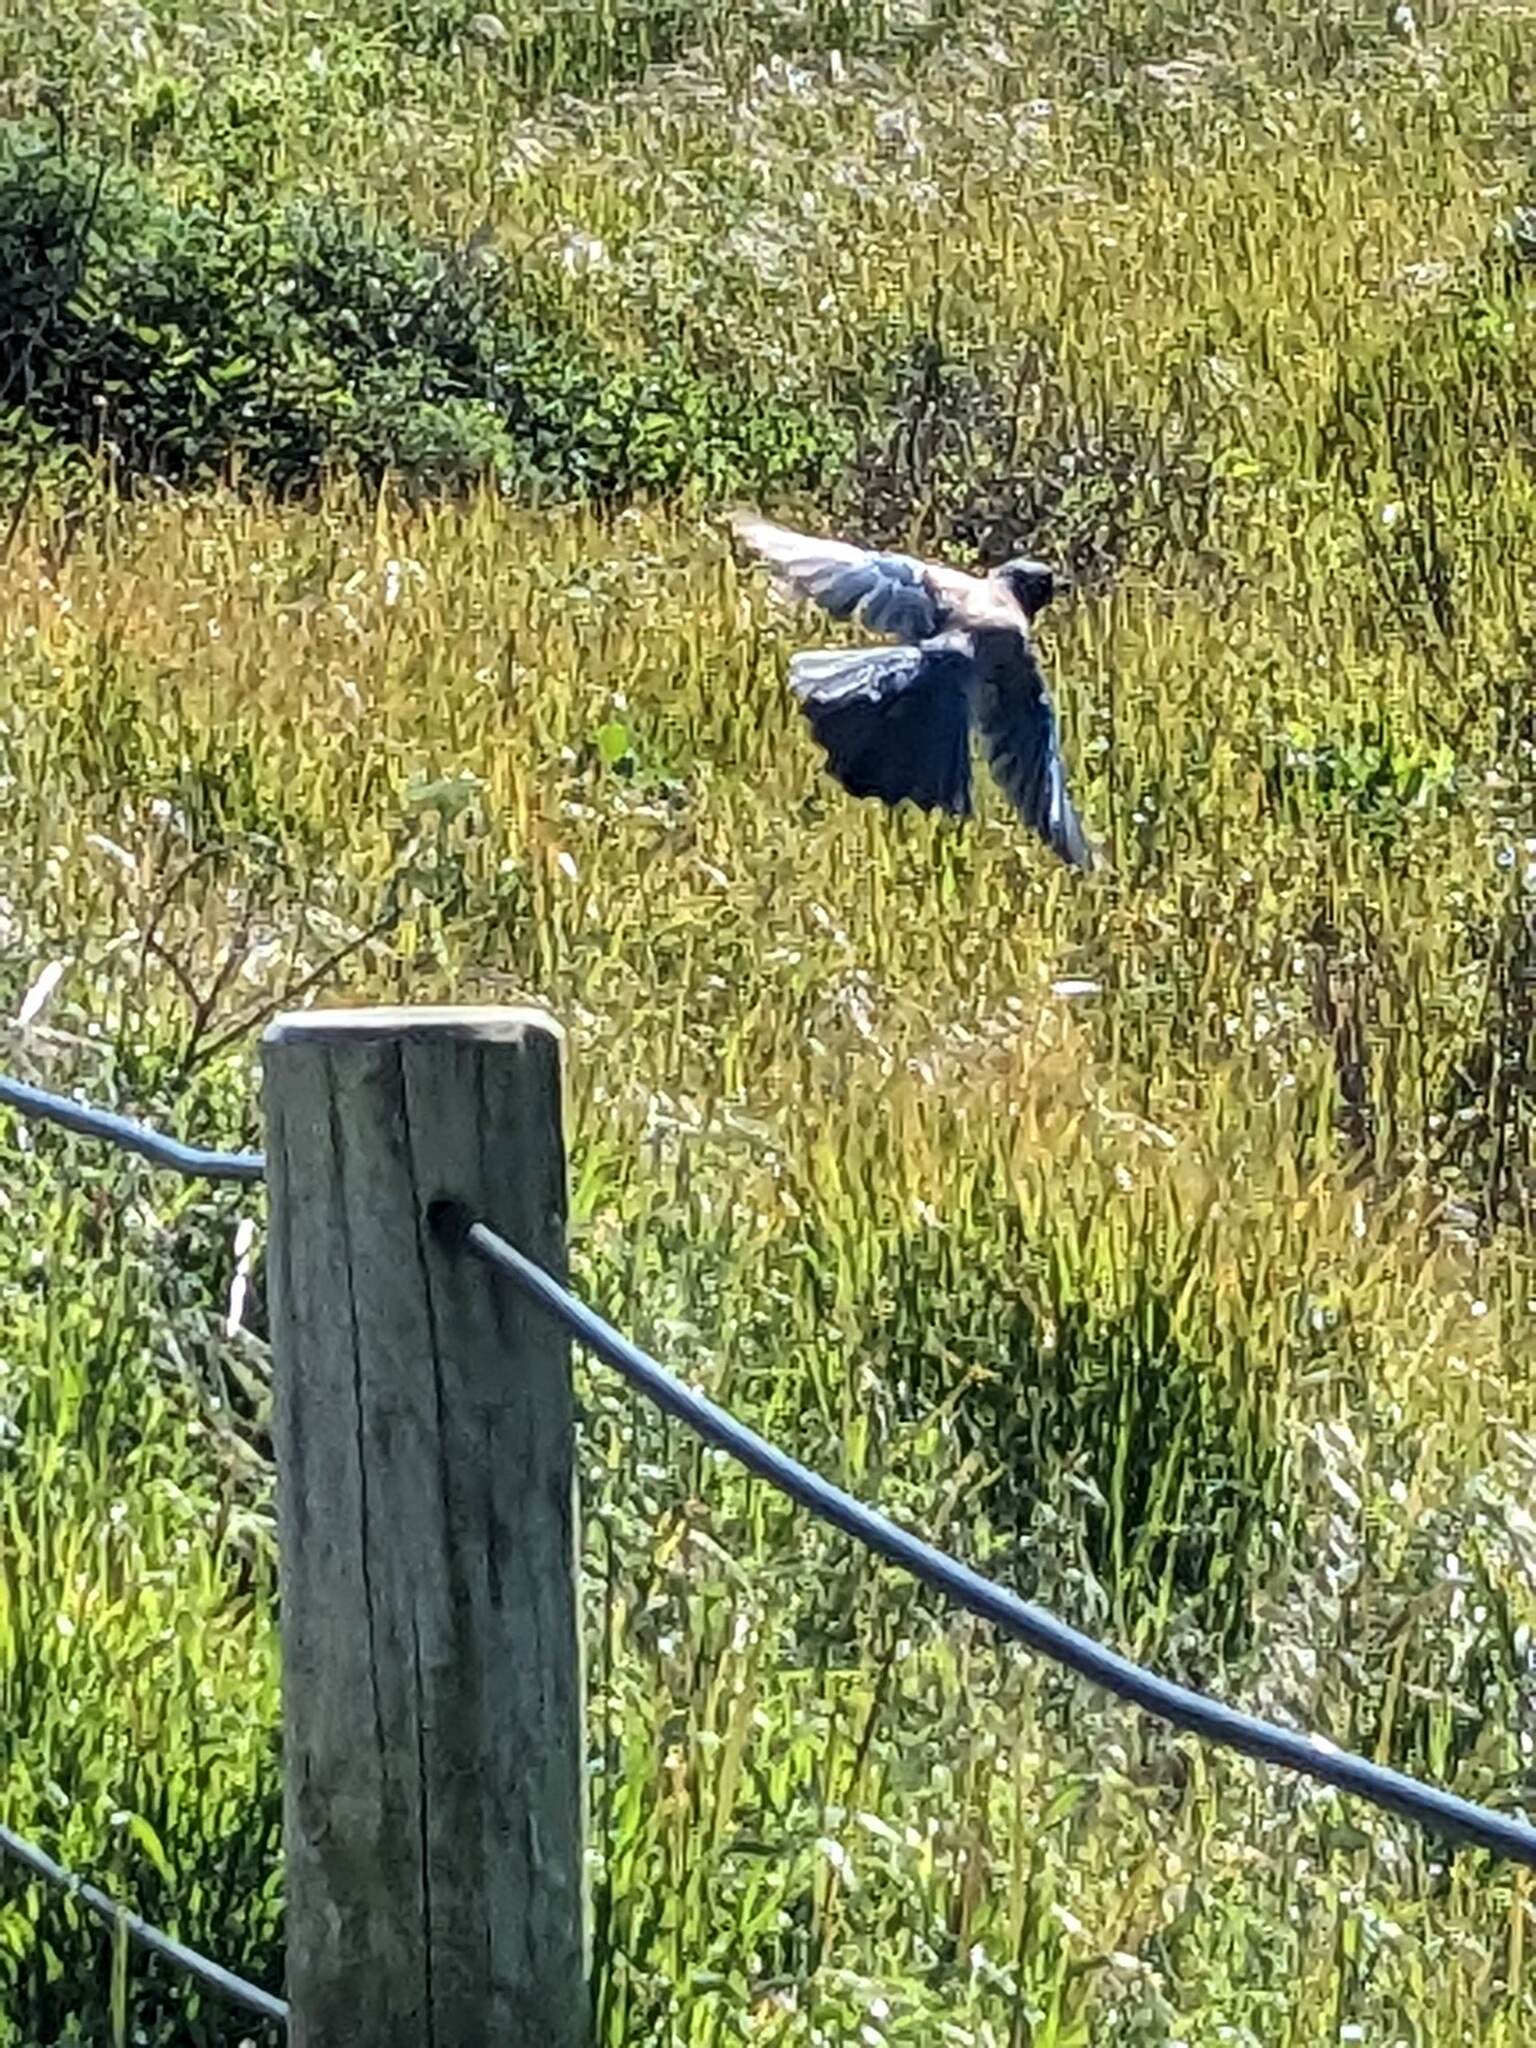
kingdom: Animalia
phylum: Chordata
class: Aves
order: Passeriformes
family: Corvidae
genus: Aphelocoma
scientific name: Aphelocoma californica
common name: California scrub-jay
